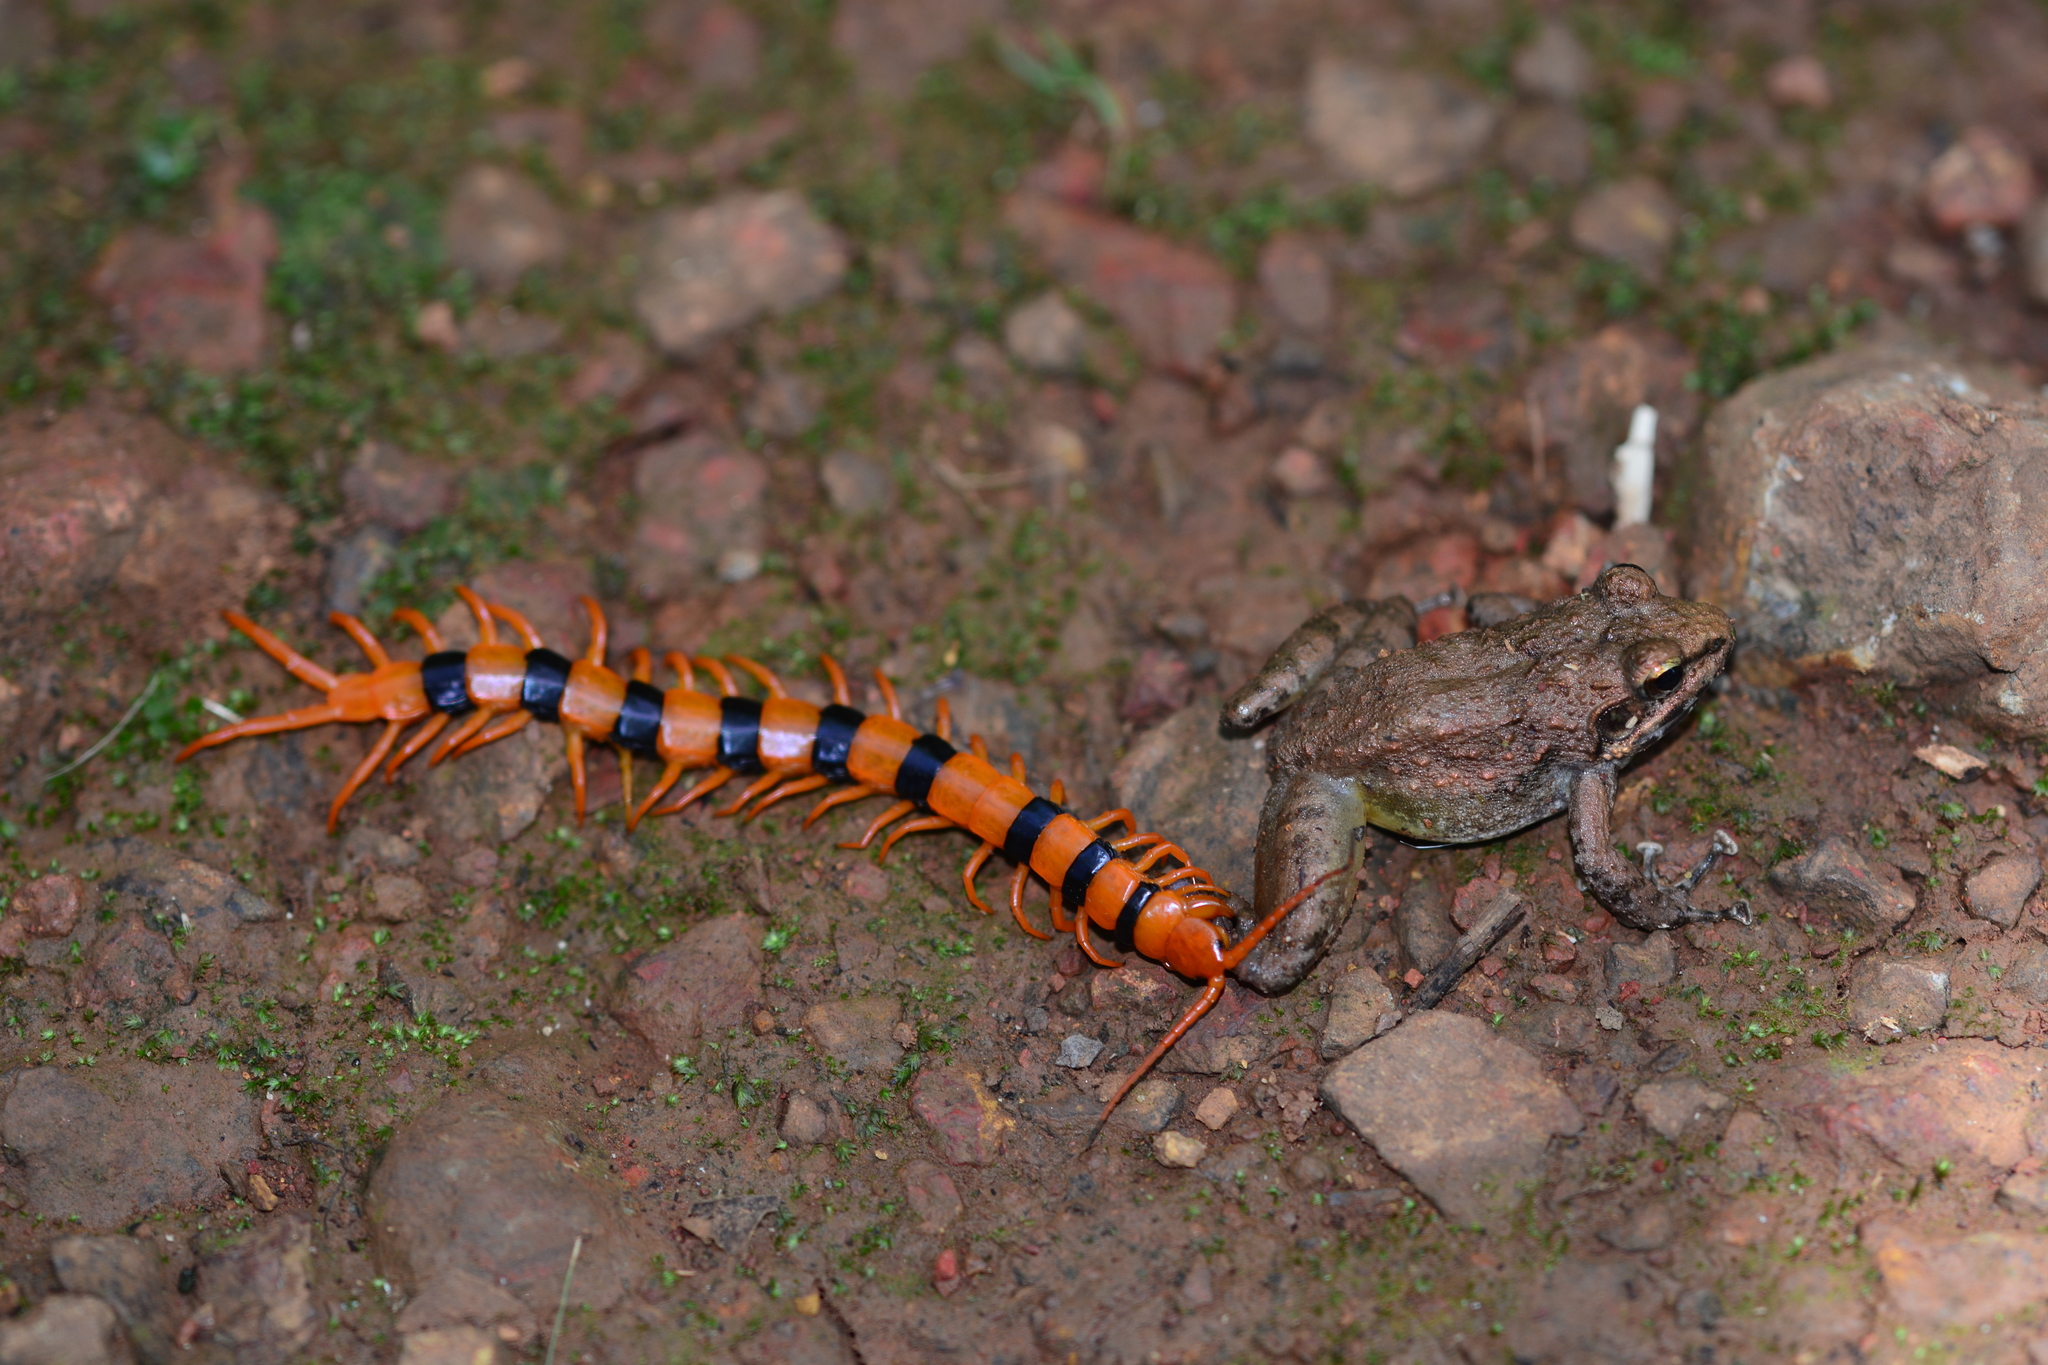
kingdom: Animalia
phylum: Arthropoda
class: Chilopoda
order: Scolopendromorpha
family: Scolopendridae
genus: Scolopendra
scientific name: Scolopendra hardwickei
